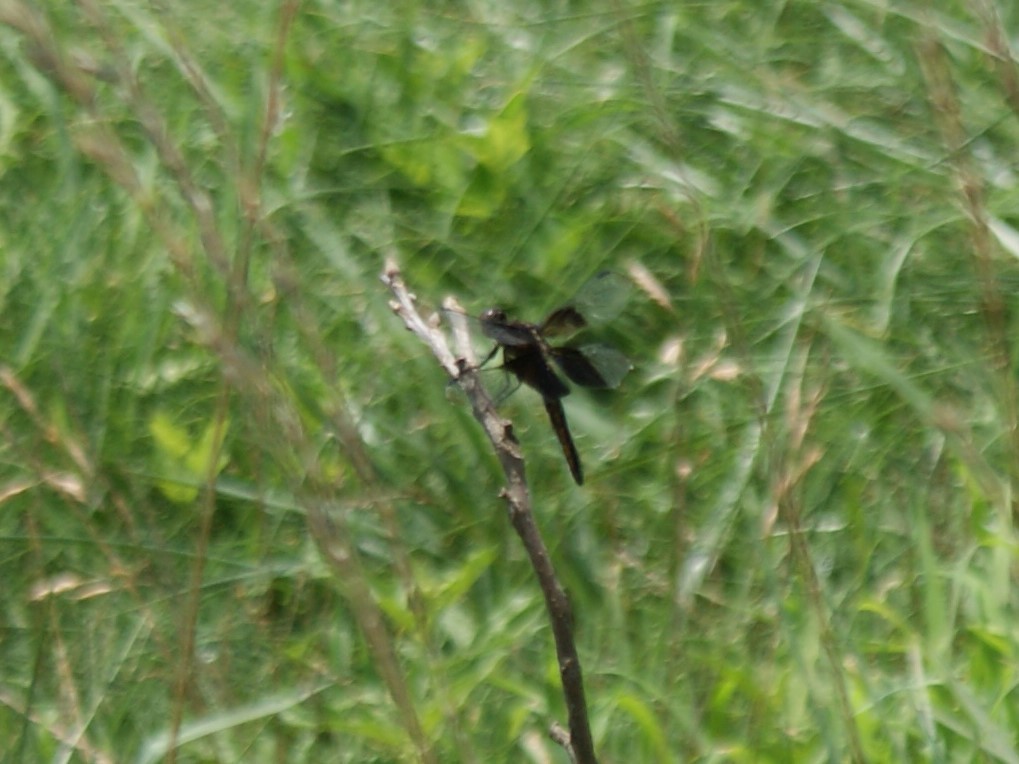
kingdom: Animalia
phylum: Arthropoda
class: Insecta
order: Odonata
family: Libellulidae
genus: Libellula
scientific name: Libellula luctuosa
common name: Widow skimmer
